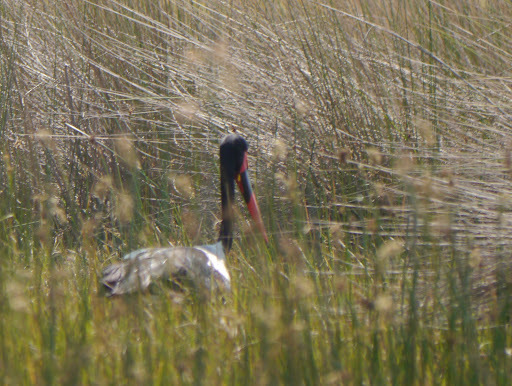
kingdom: Animalia
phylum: Chordata
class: Aves
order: Ciconiiformes
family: Ciconiidae
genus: Ephippiorhynchus
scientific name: Ephippiorhynchus senegalensis
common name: Saddle-billed stork
